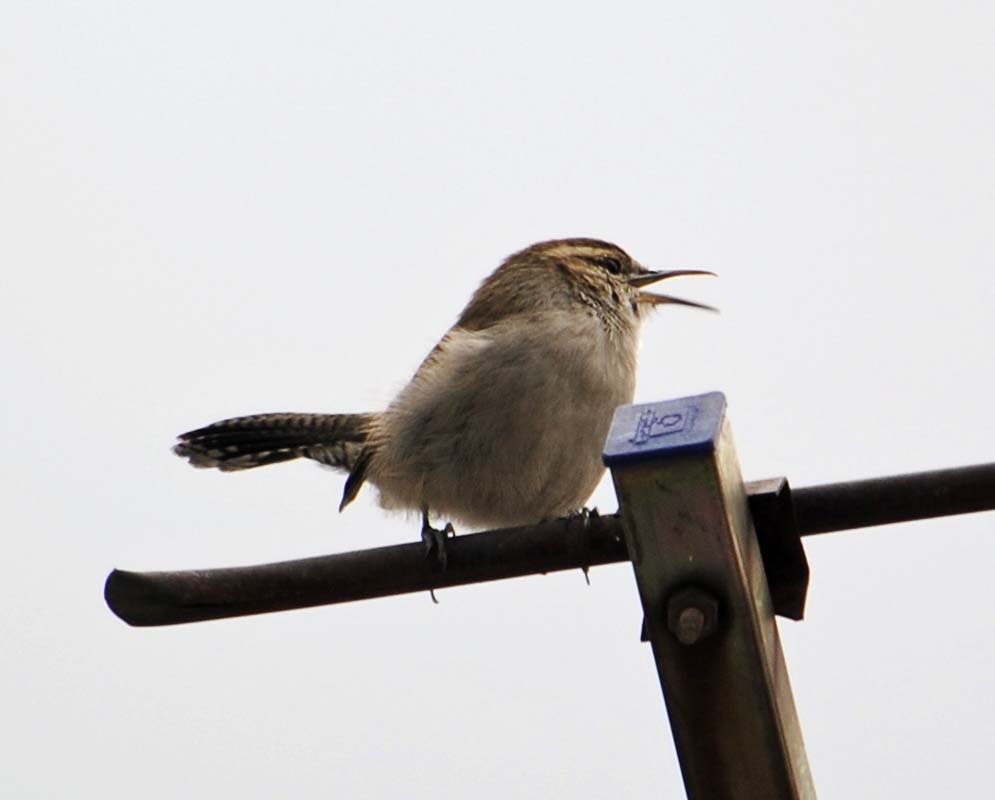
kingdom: Animalia
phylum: Chordata
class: Aves
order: Passeriformes
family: Troglodytidae
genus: Thryomanes
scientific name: Thryomanes bewickii
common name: Bewick's wren
